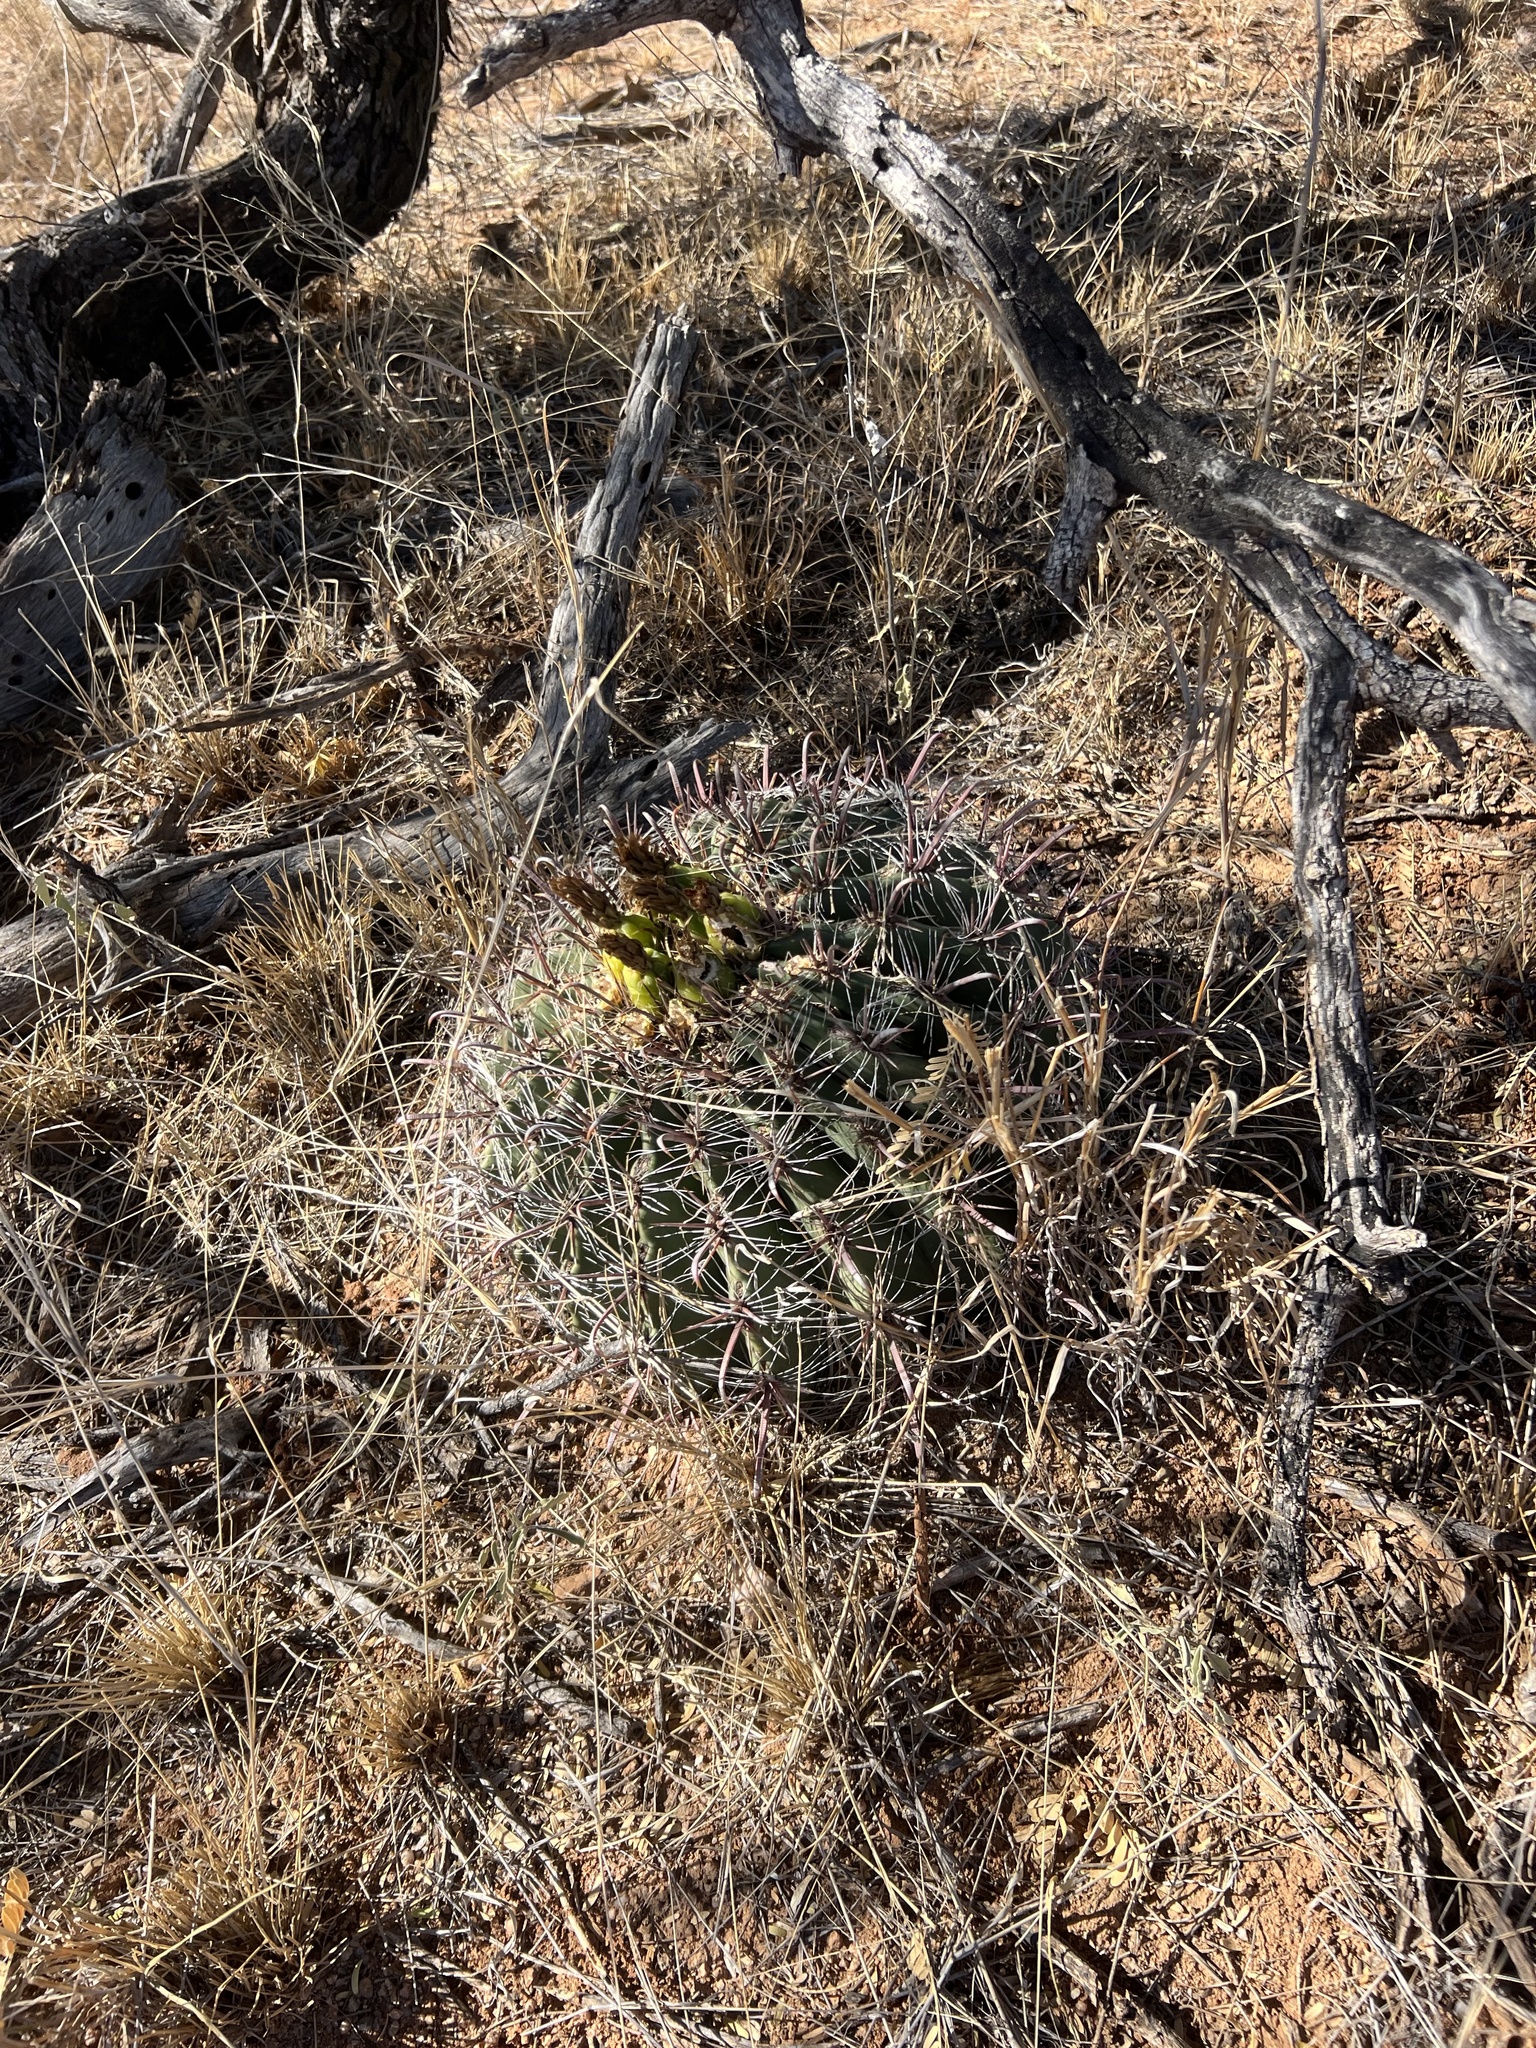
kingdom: Plantae
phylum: Tracheophyta
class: Magnoliopsida
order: Caryophyllales
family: Cactaceae
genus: Ferocactus
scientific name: Ferocactus wislizeni
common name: Candy barrel cactus
